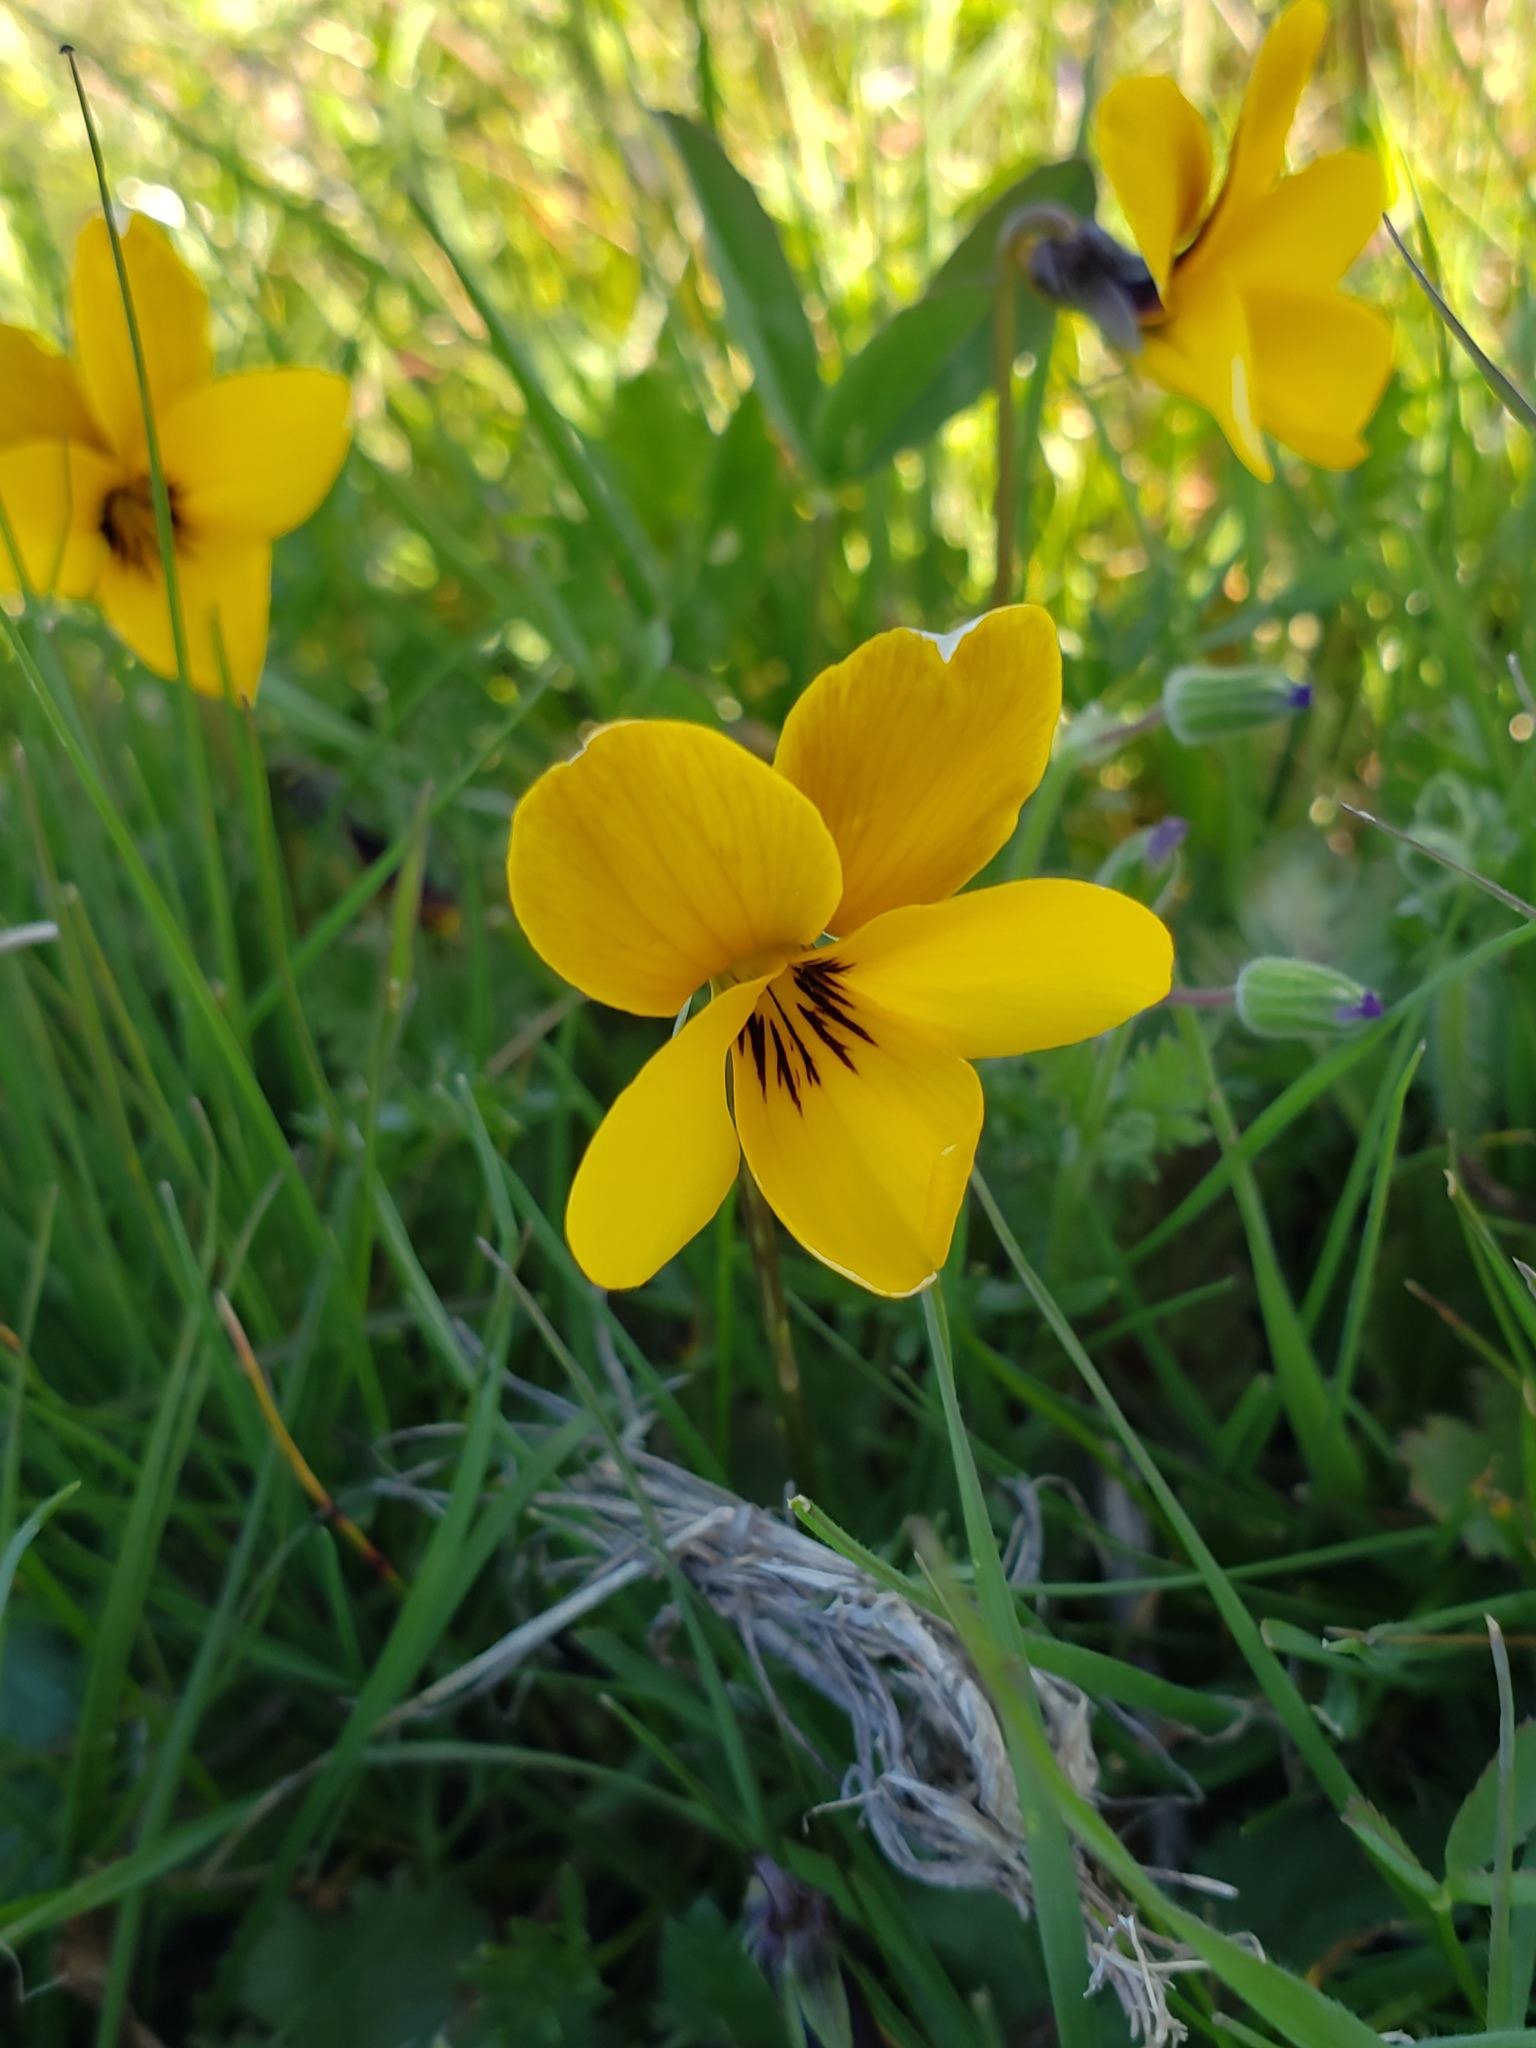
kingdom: Plantae
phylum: Tracheophyta
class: Magnoliopsida
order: Malpighiales
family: Violaceae
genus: Viola
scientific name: Viola douglasii
